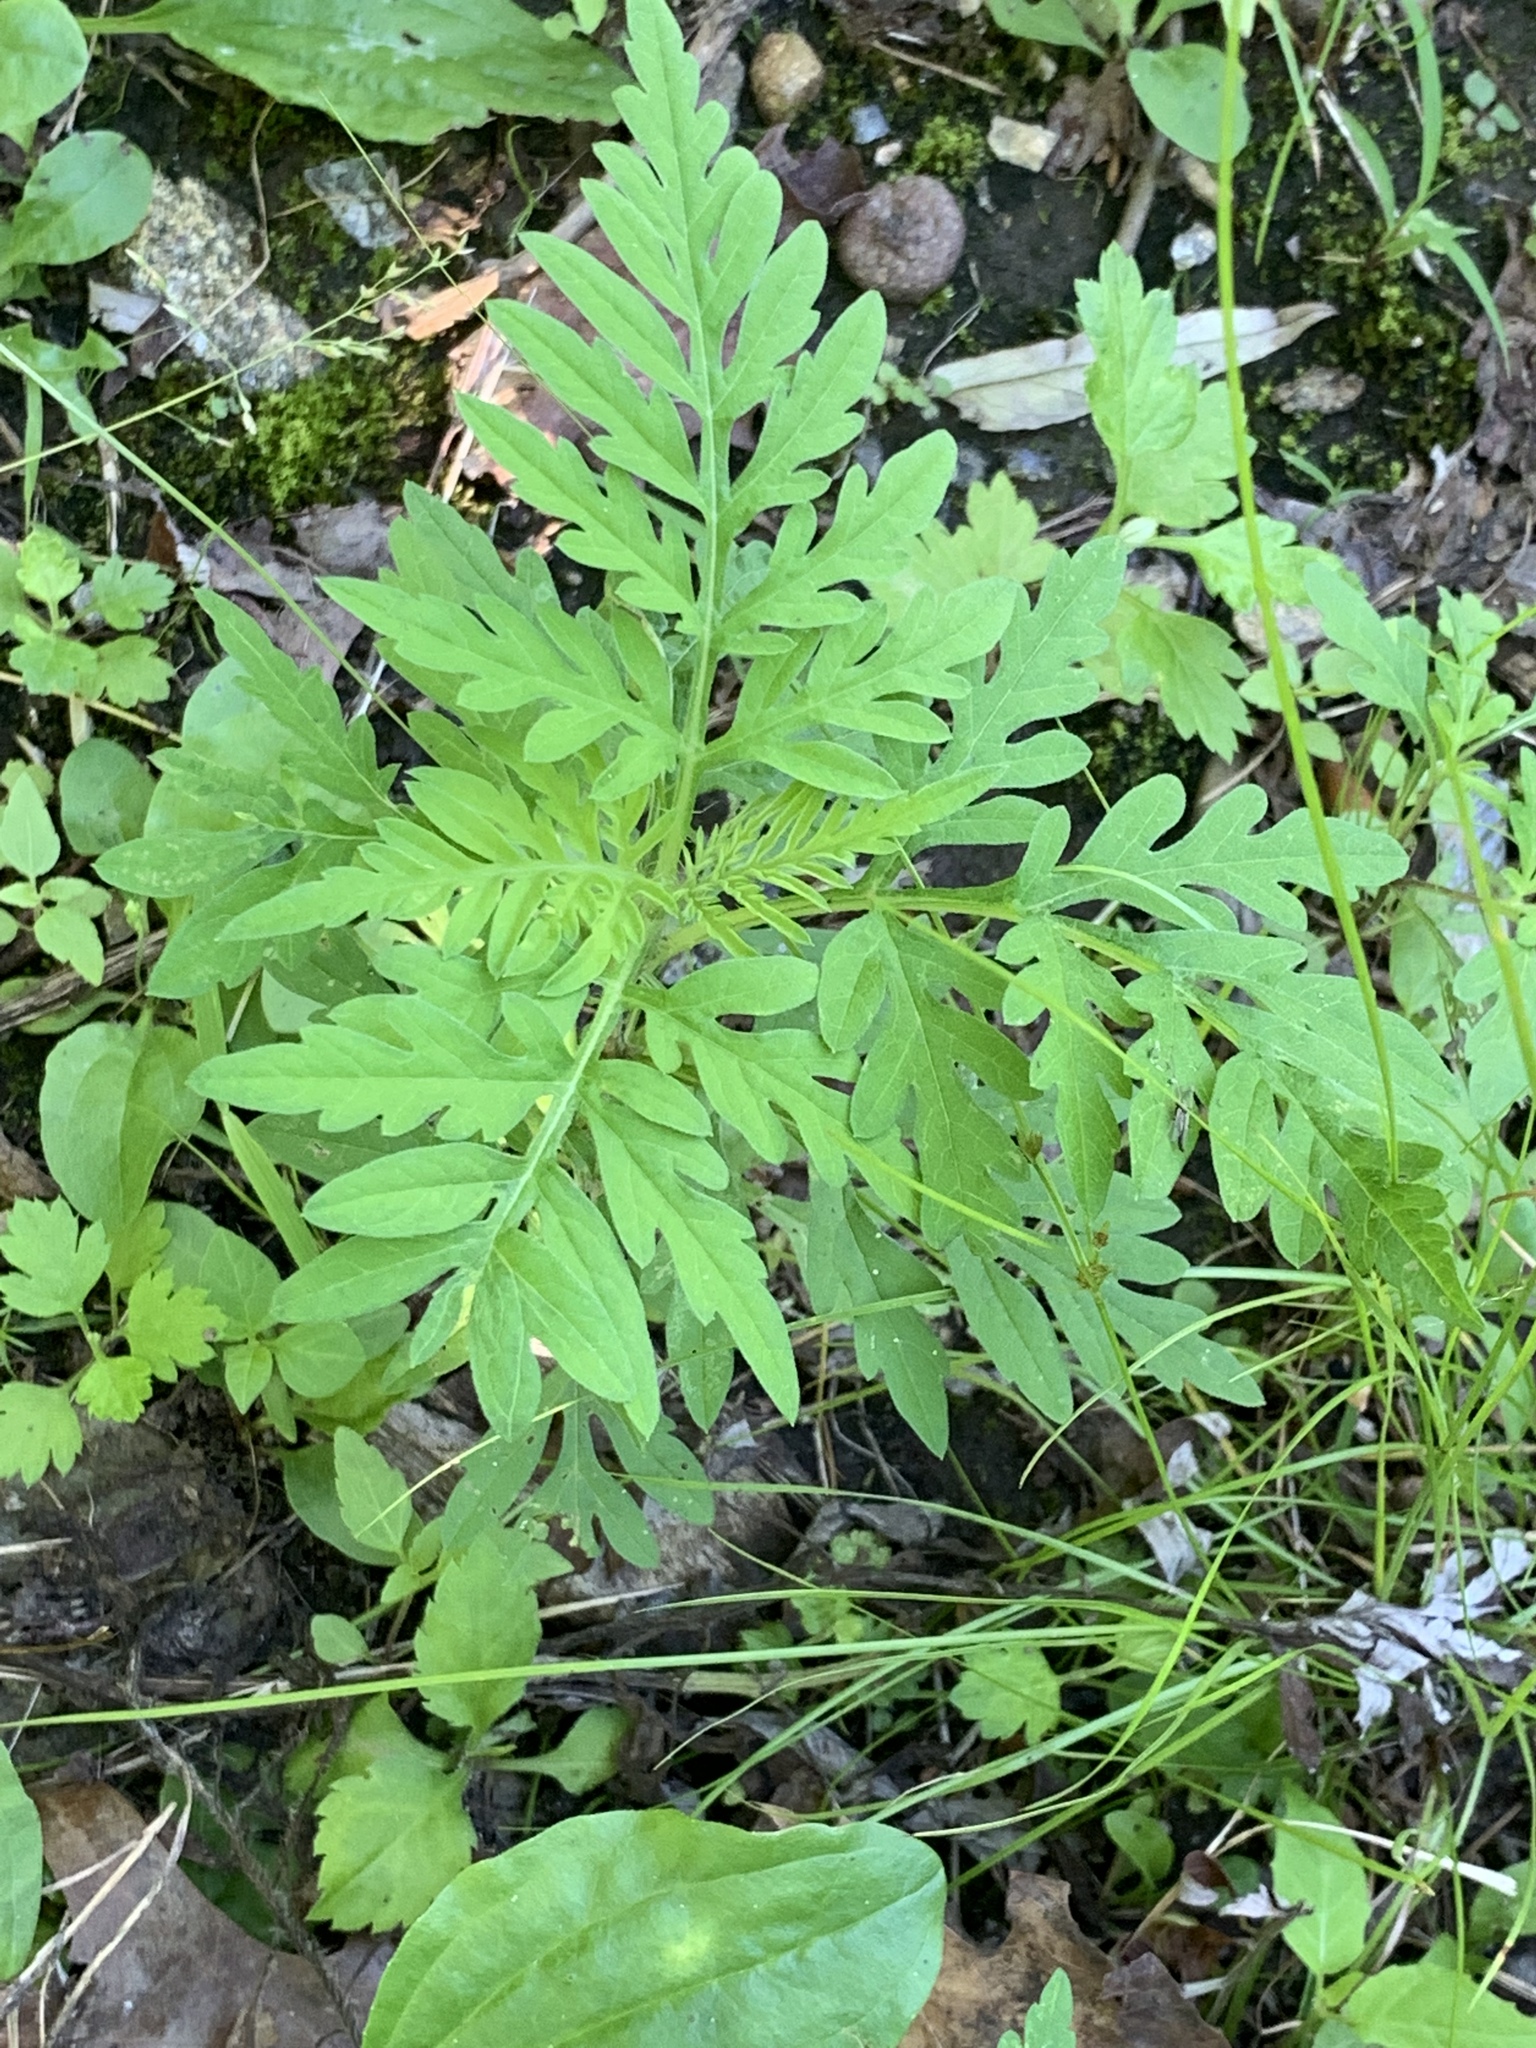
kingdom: Plantae
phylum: Tracheophyta
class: Magnoliopsida
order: Asterales
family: Asteraceae
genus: Ambrosia
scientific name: Ambrosia artemisiifolia
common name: Annual ragweed
